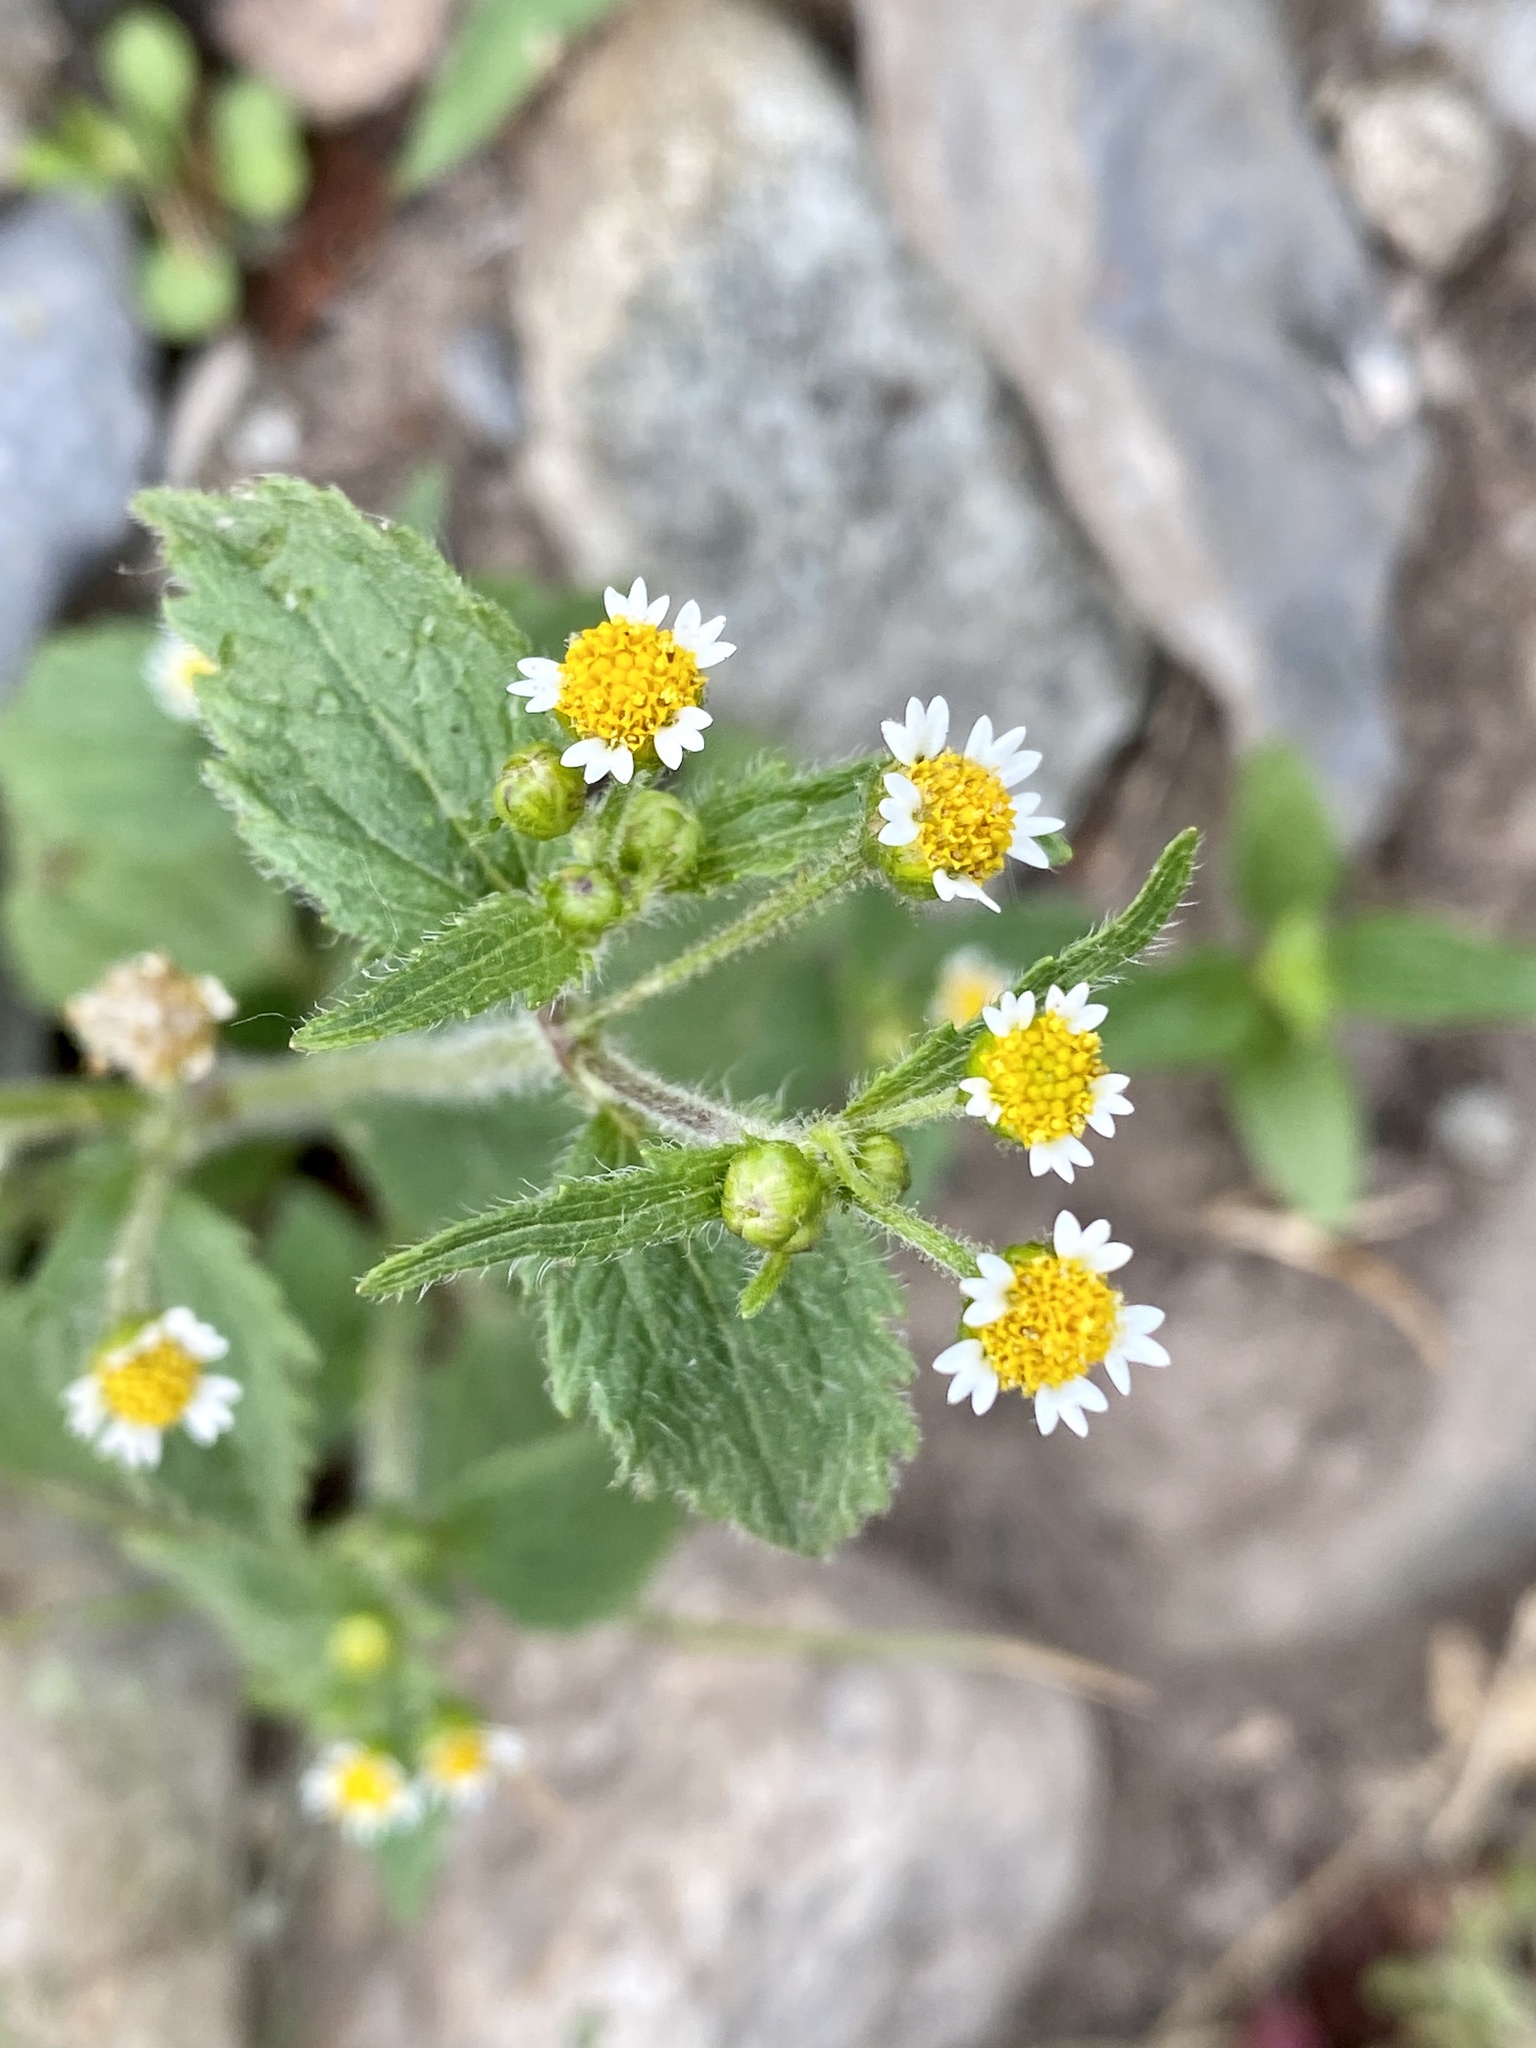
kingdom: Plantae
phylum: Tracheophyta
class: Magnoliopsida
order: Asterales
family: Asteraceae
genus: Galinsoga
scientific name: Galinsoga quadriradiata
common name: Shaggy soldier
